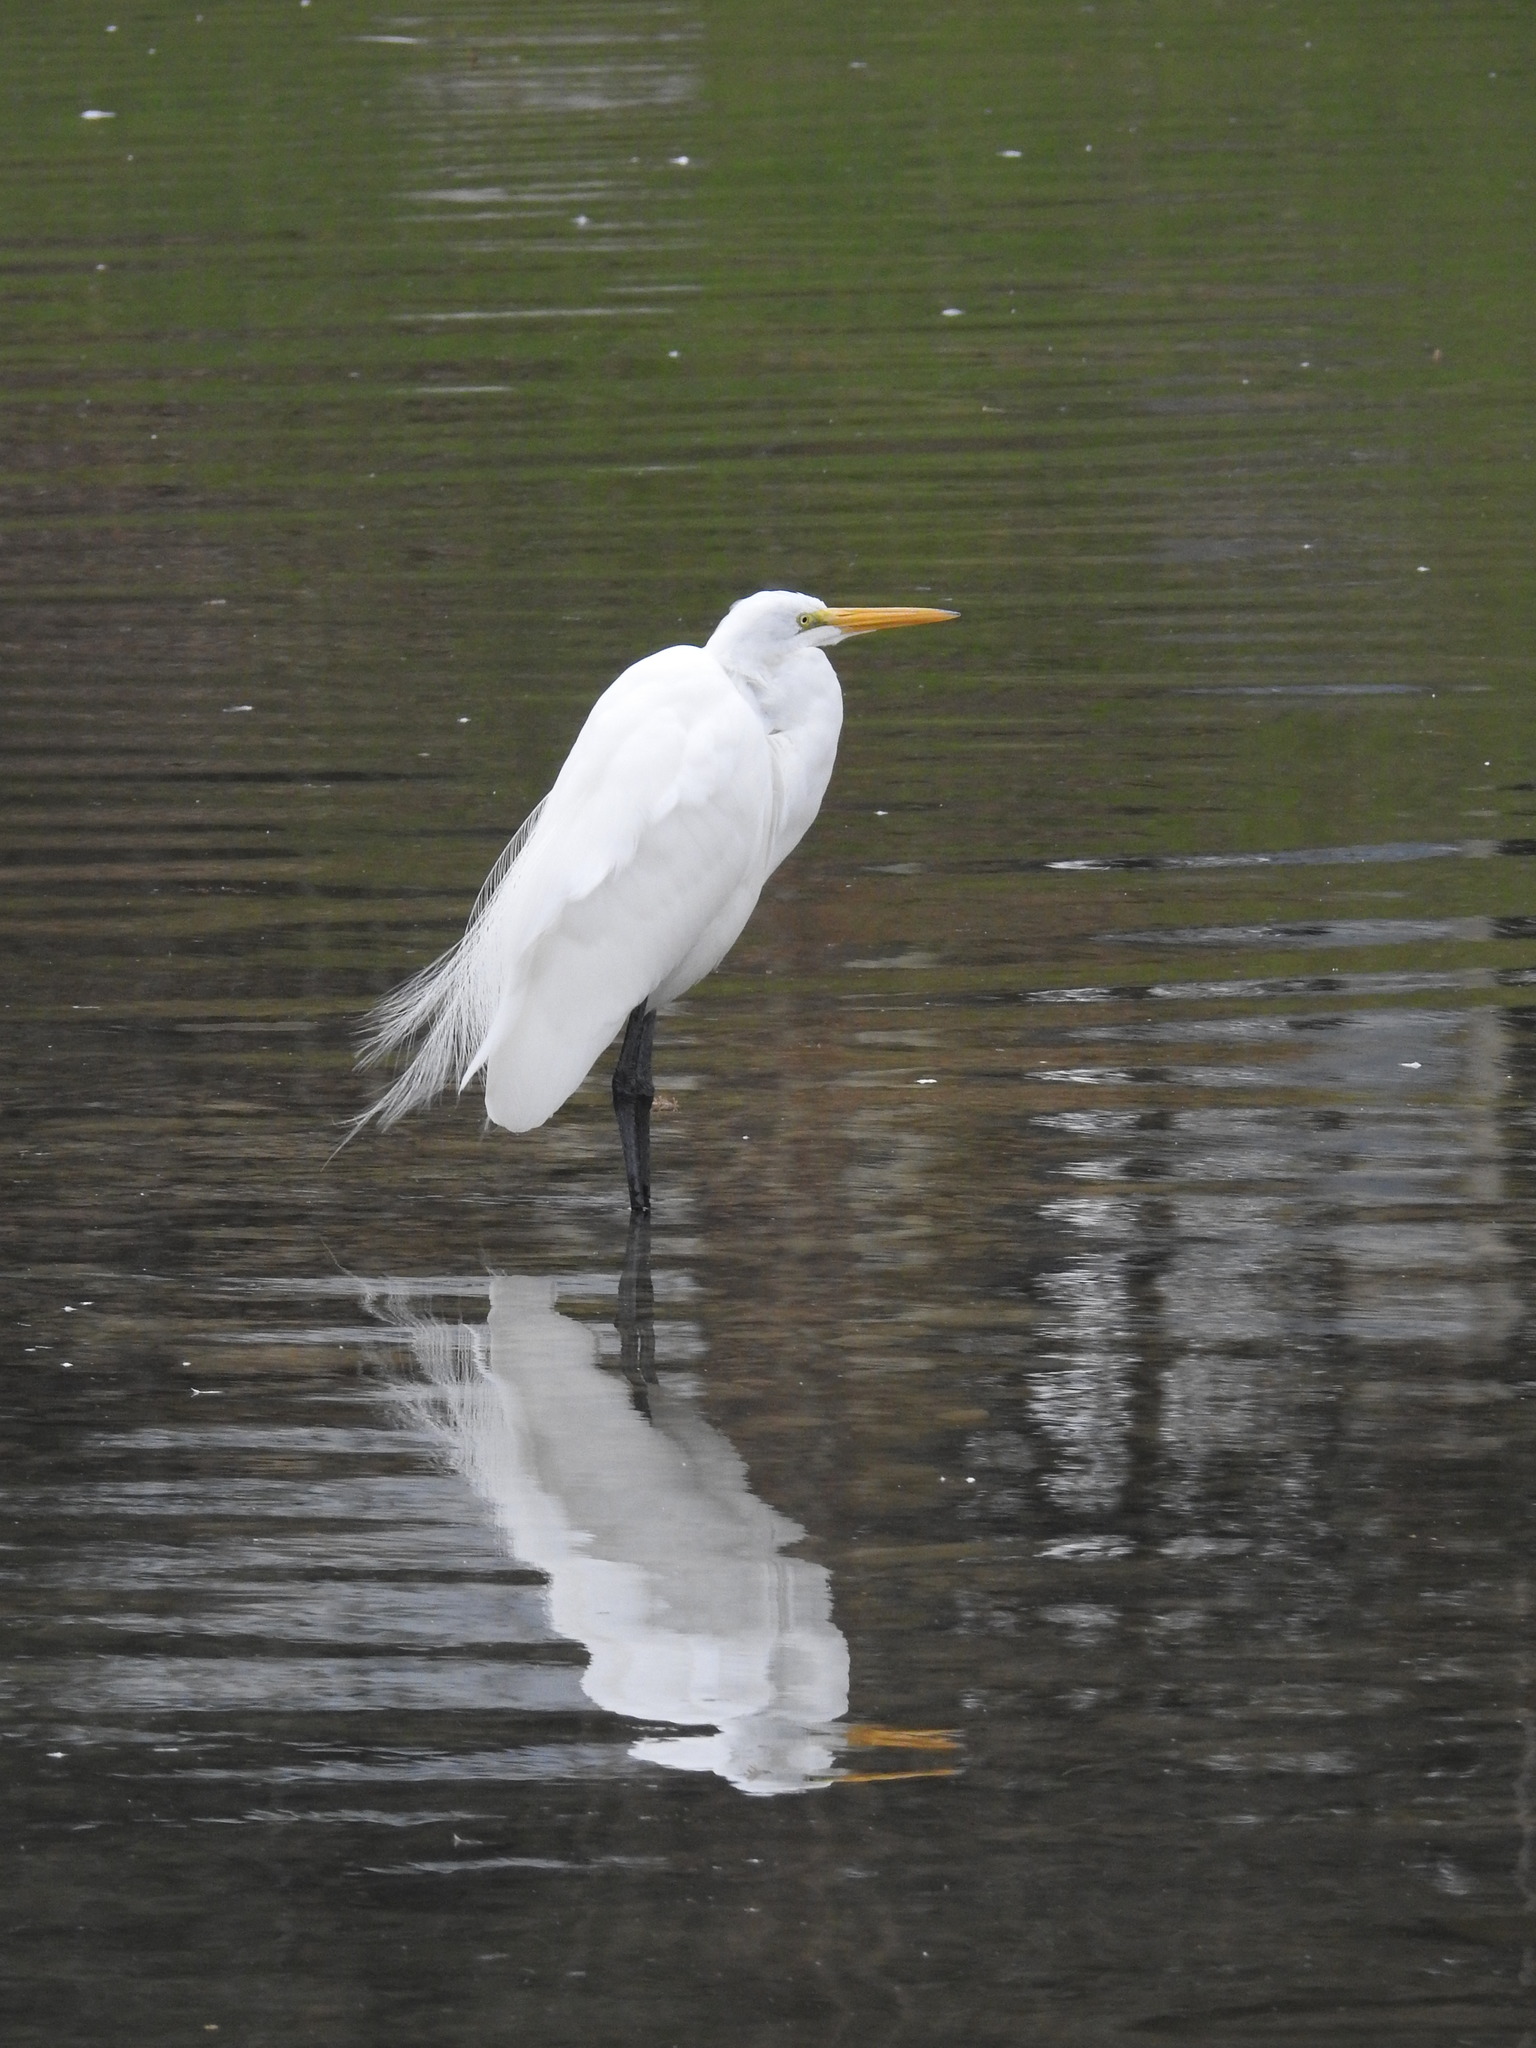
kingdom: Animalia
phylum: Chordata
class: Aves
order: Pelecaniformes
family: Ardeidae
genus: Ardea
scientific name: Ardea alba
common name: Great egret
